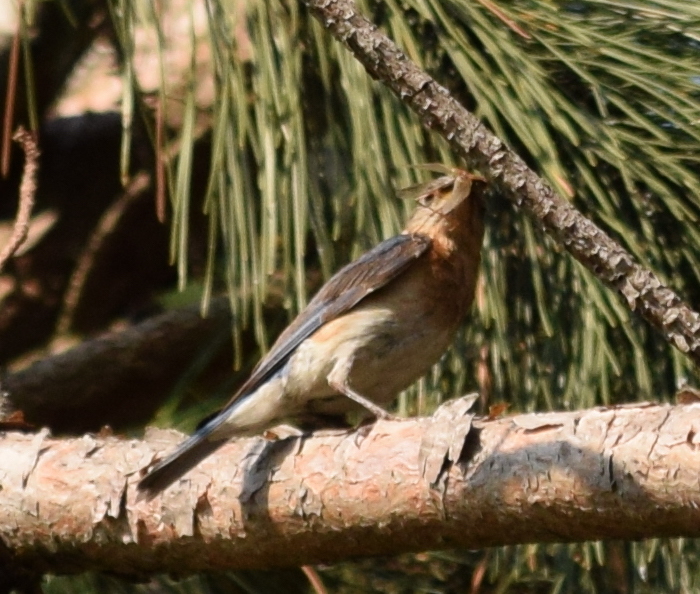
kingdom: Animalia
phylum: Chordata
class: Aves
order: Passeriformes
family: Turdidae
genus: Sialia
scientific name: Sialia sialis
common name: Eastern bluebird
